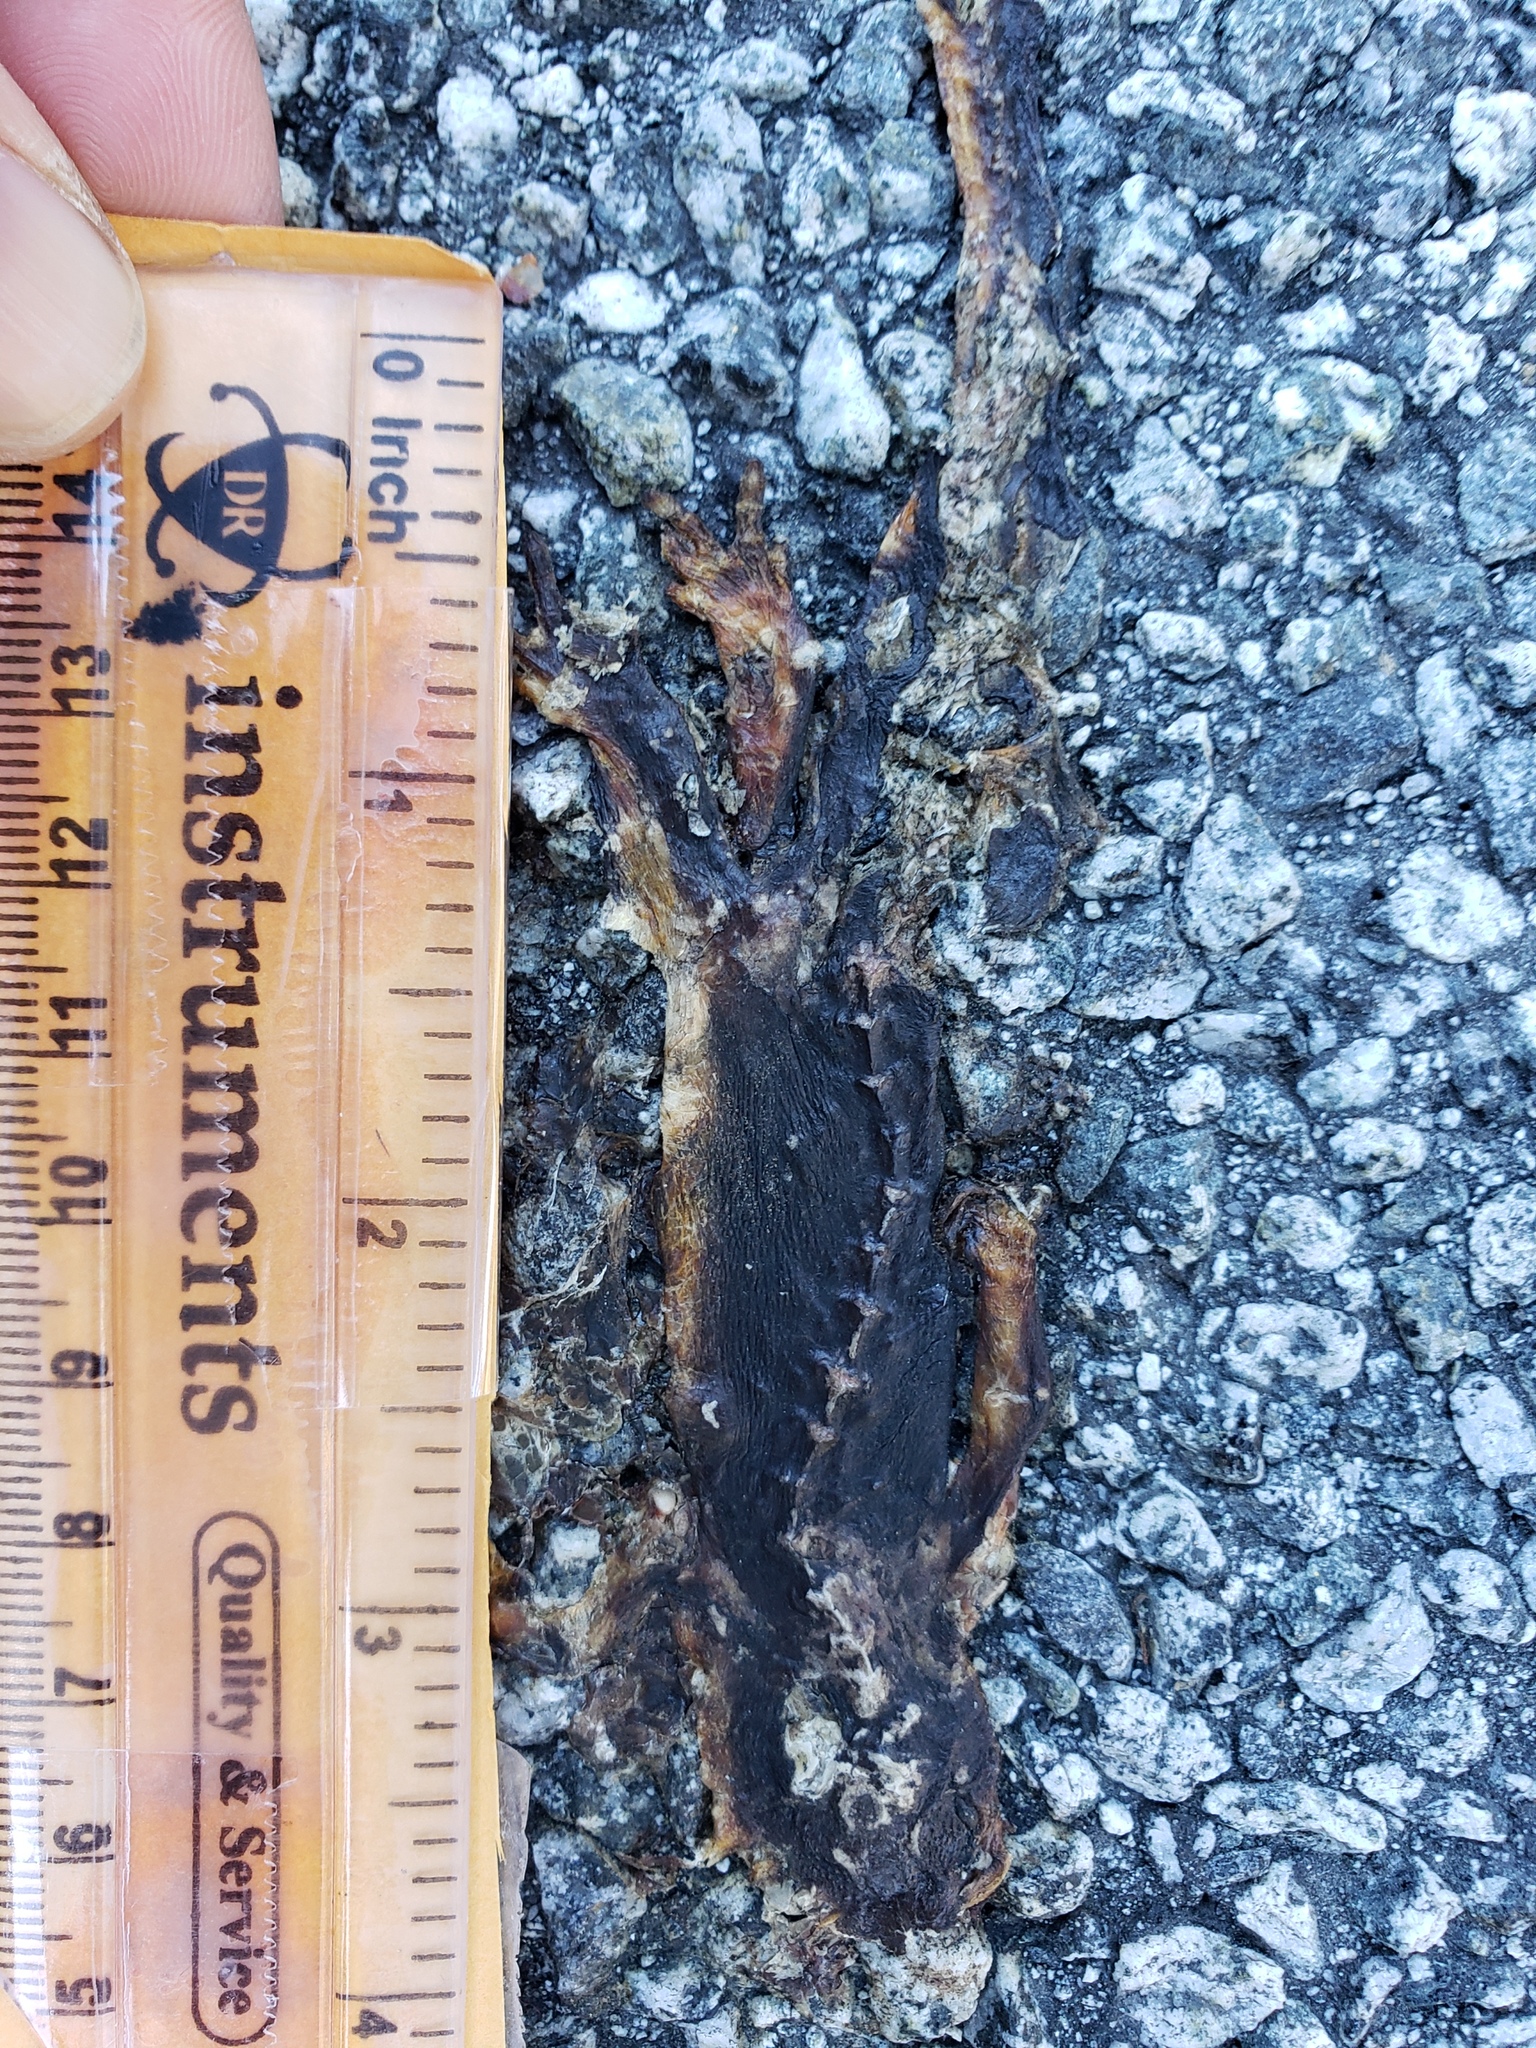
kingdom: Animalia
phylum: Chordata
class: Amphibia
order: Caudata
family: Salamandridae
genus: Taricha
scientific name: Taricha
